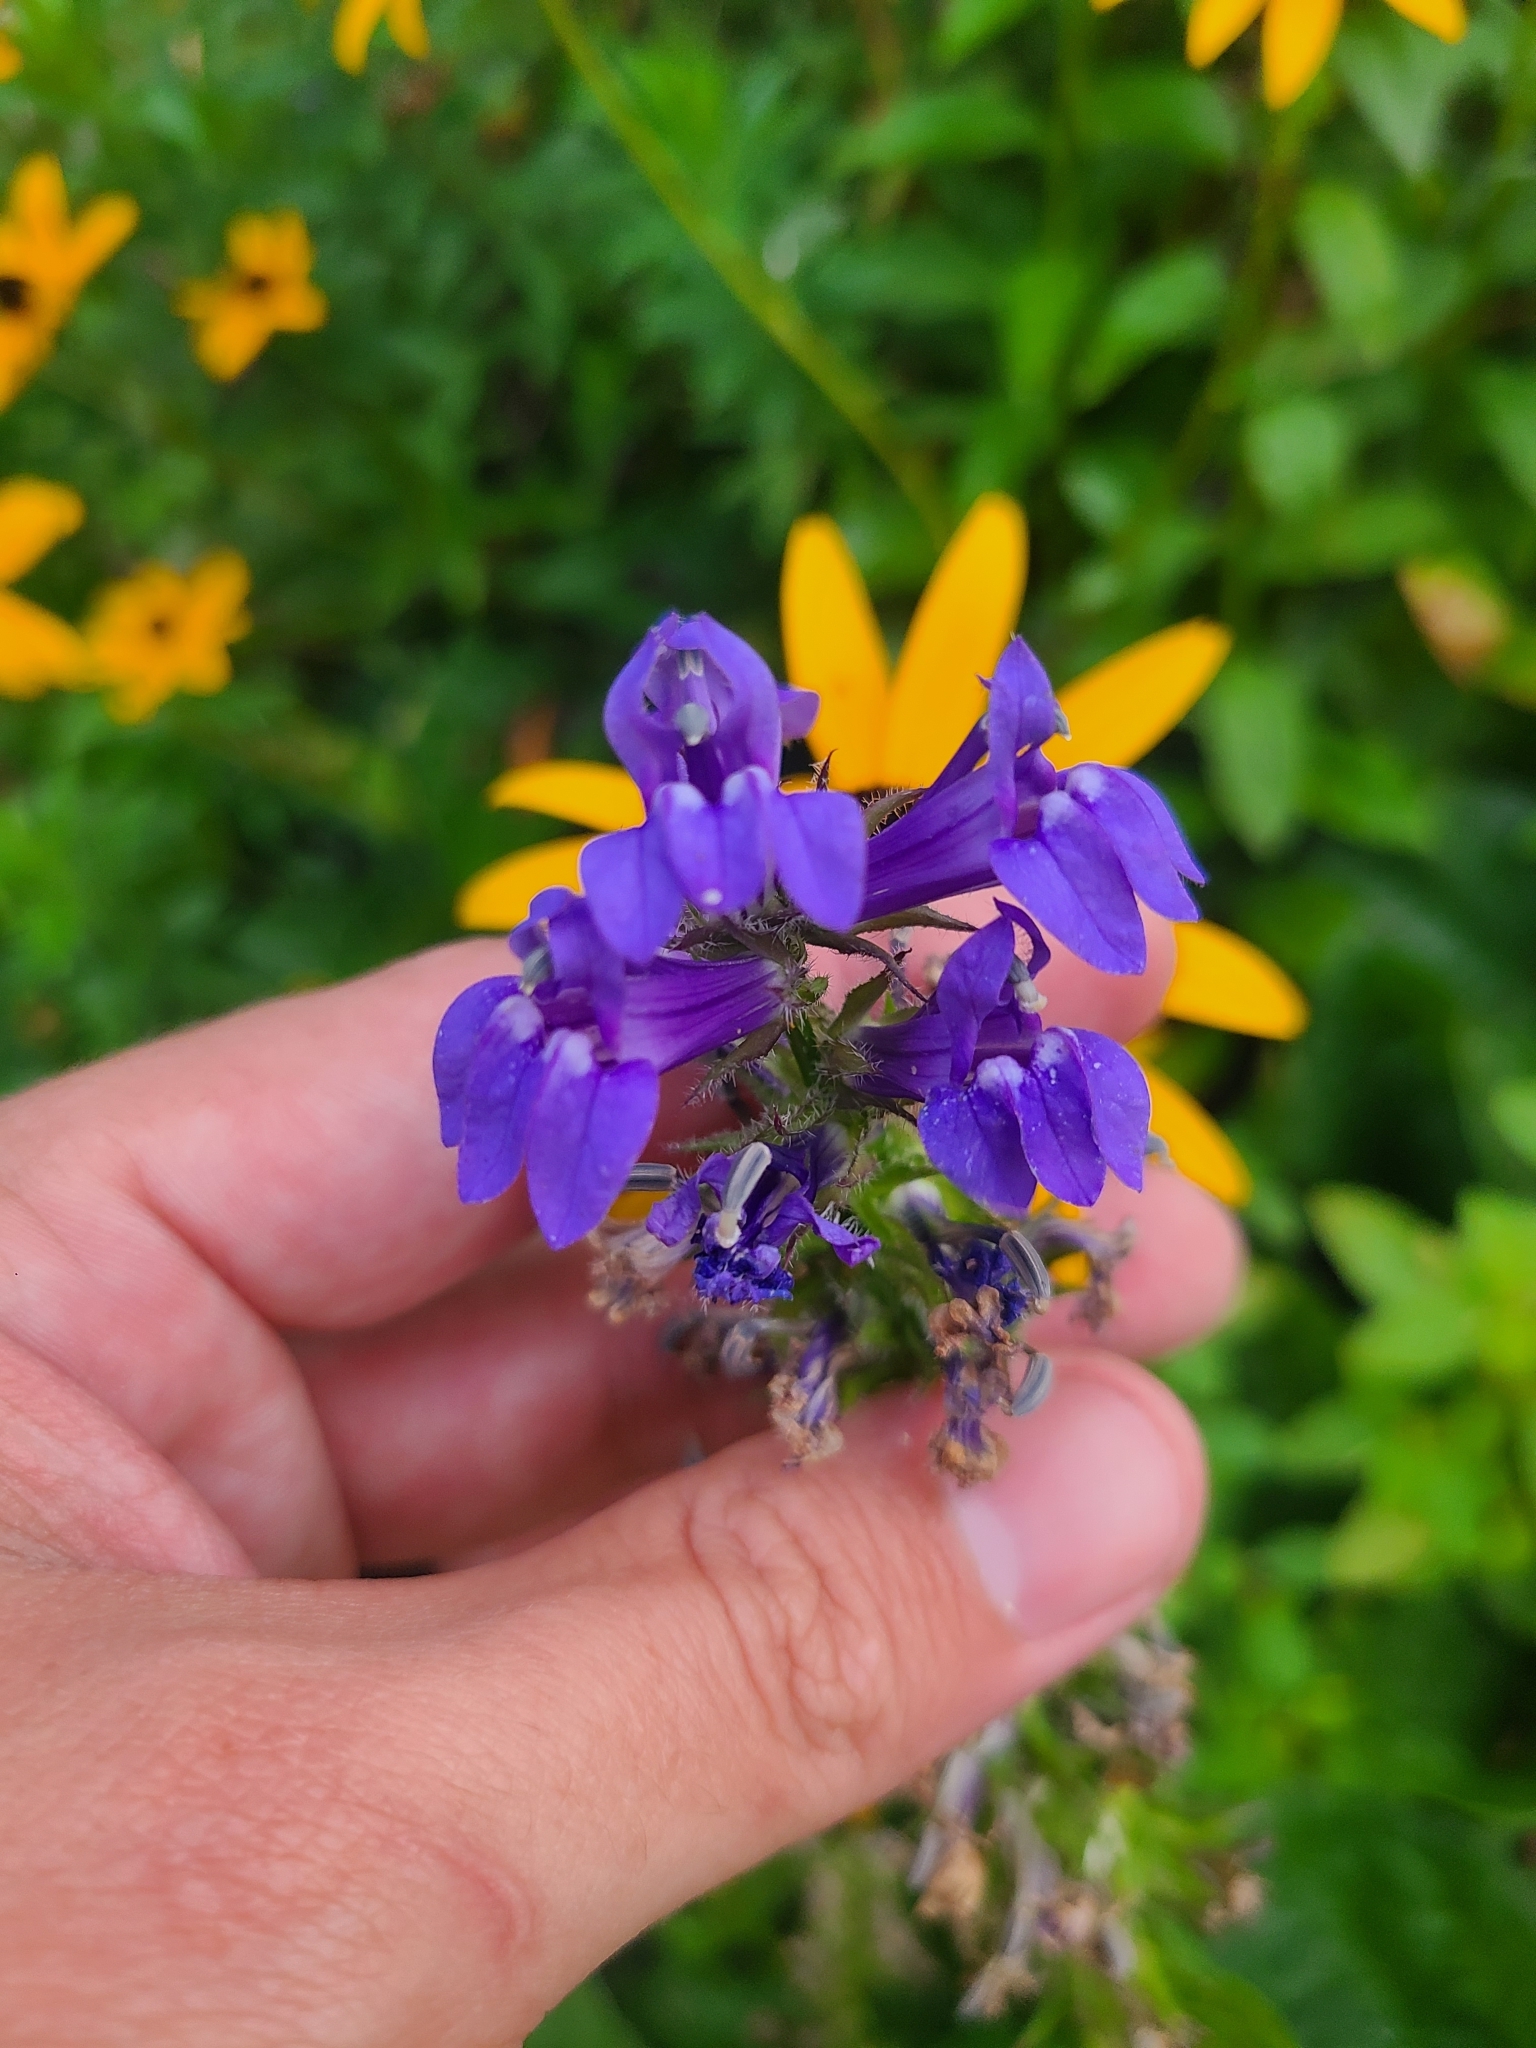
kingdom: Plantae
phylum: Tracheophyta
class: Magnoliopsida
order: Asterales
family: Campanulaceae
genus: Lobelia
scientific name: Lobelia siphilitica
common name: Great lobelia
